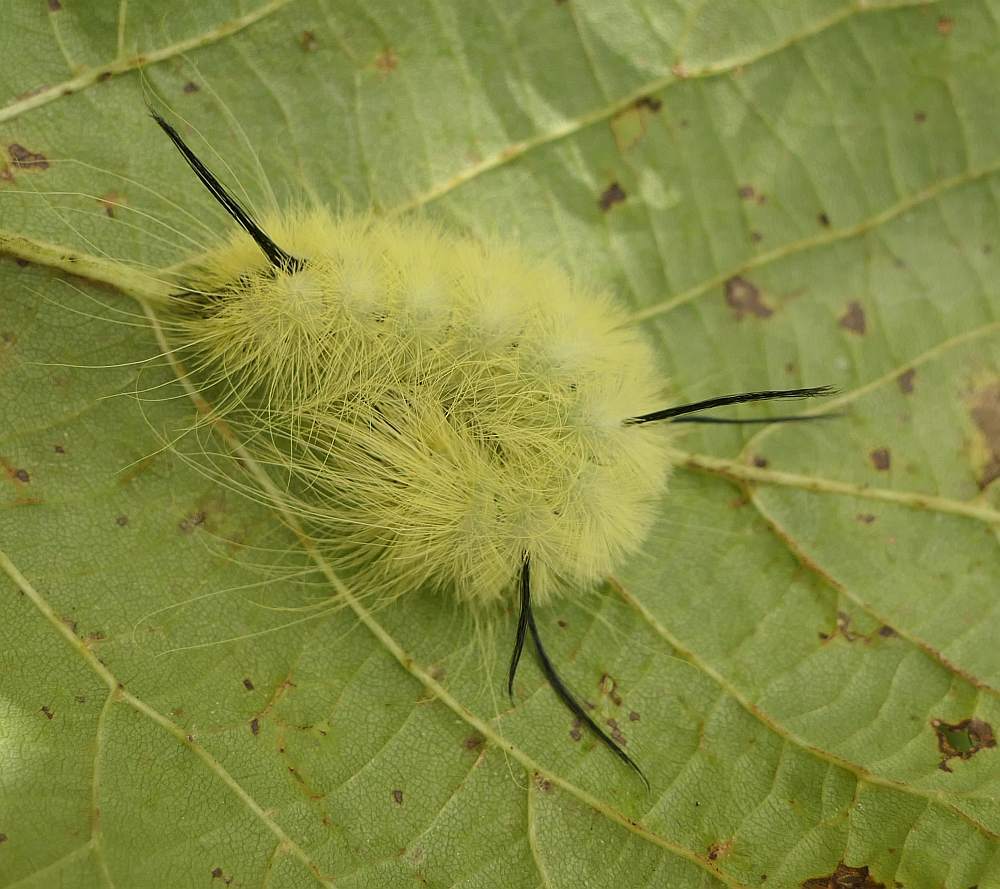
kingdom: Animalia
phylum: Arthropoda
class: Insecta
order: Lepidoptera
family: Noctuidae
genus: Acronicta
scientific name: Acronicta americana
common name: American dagger
